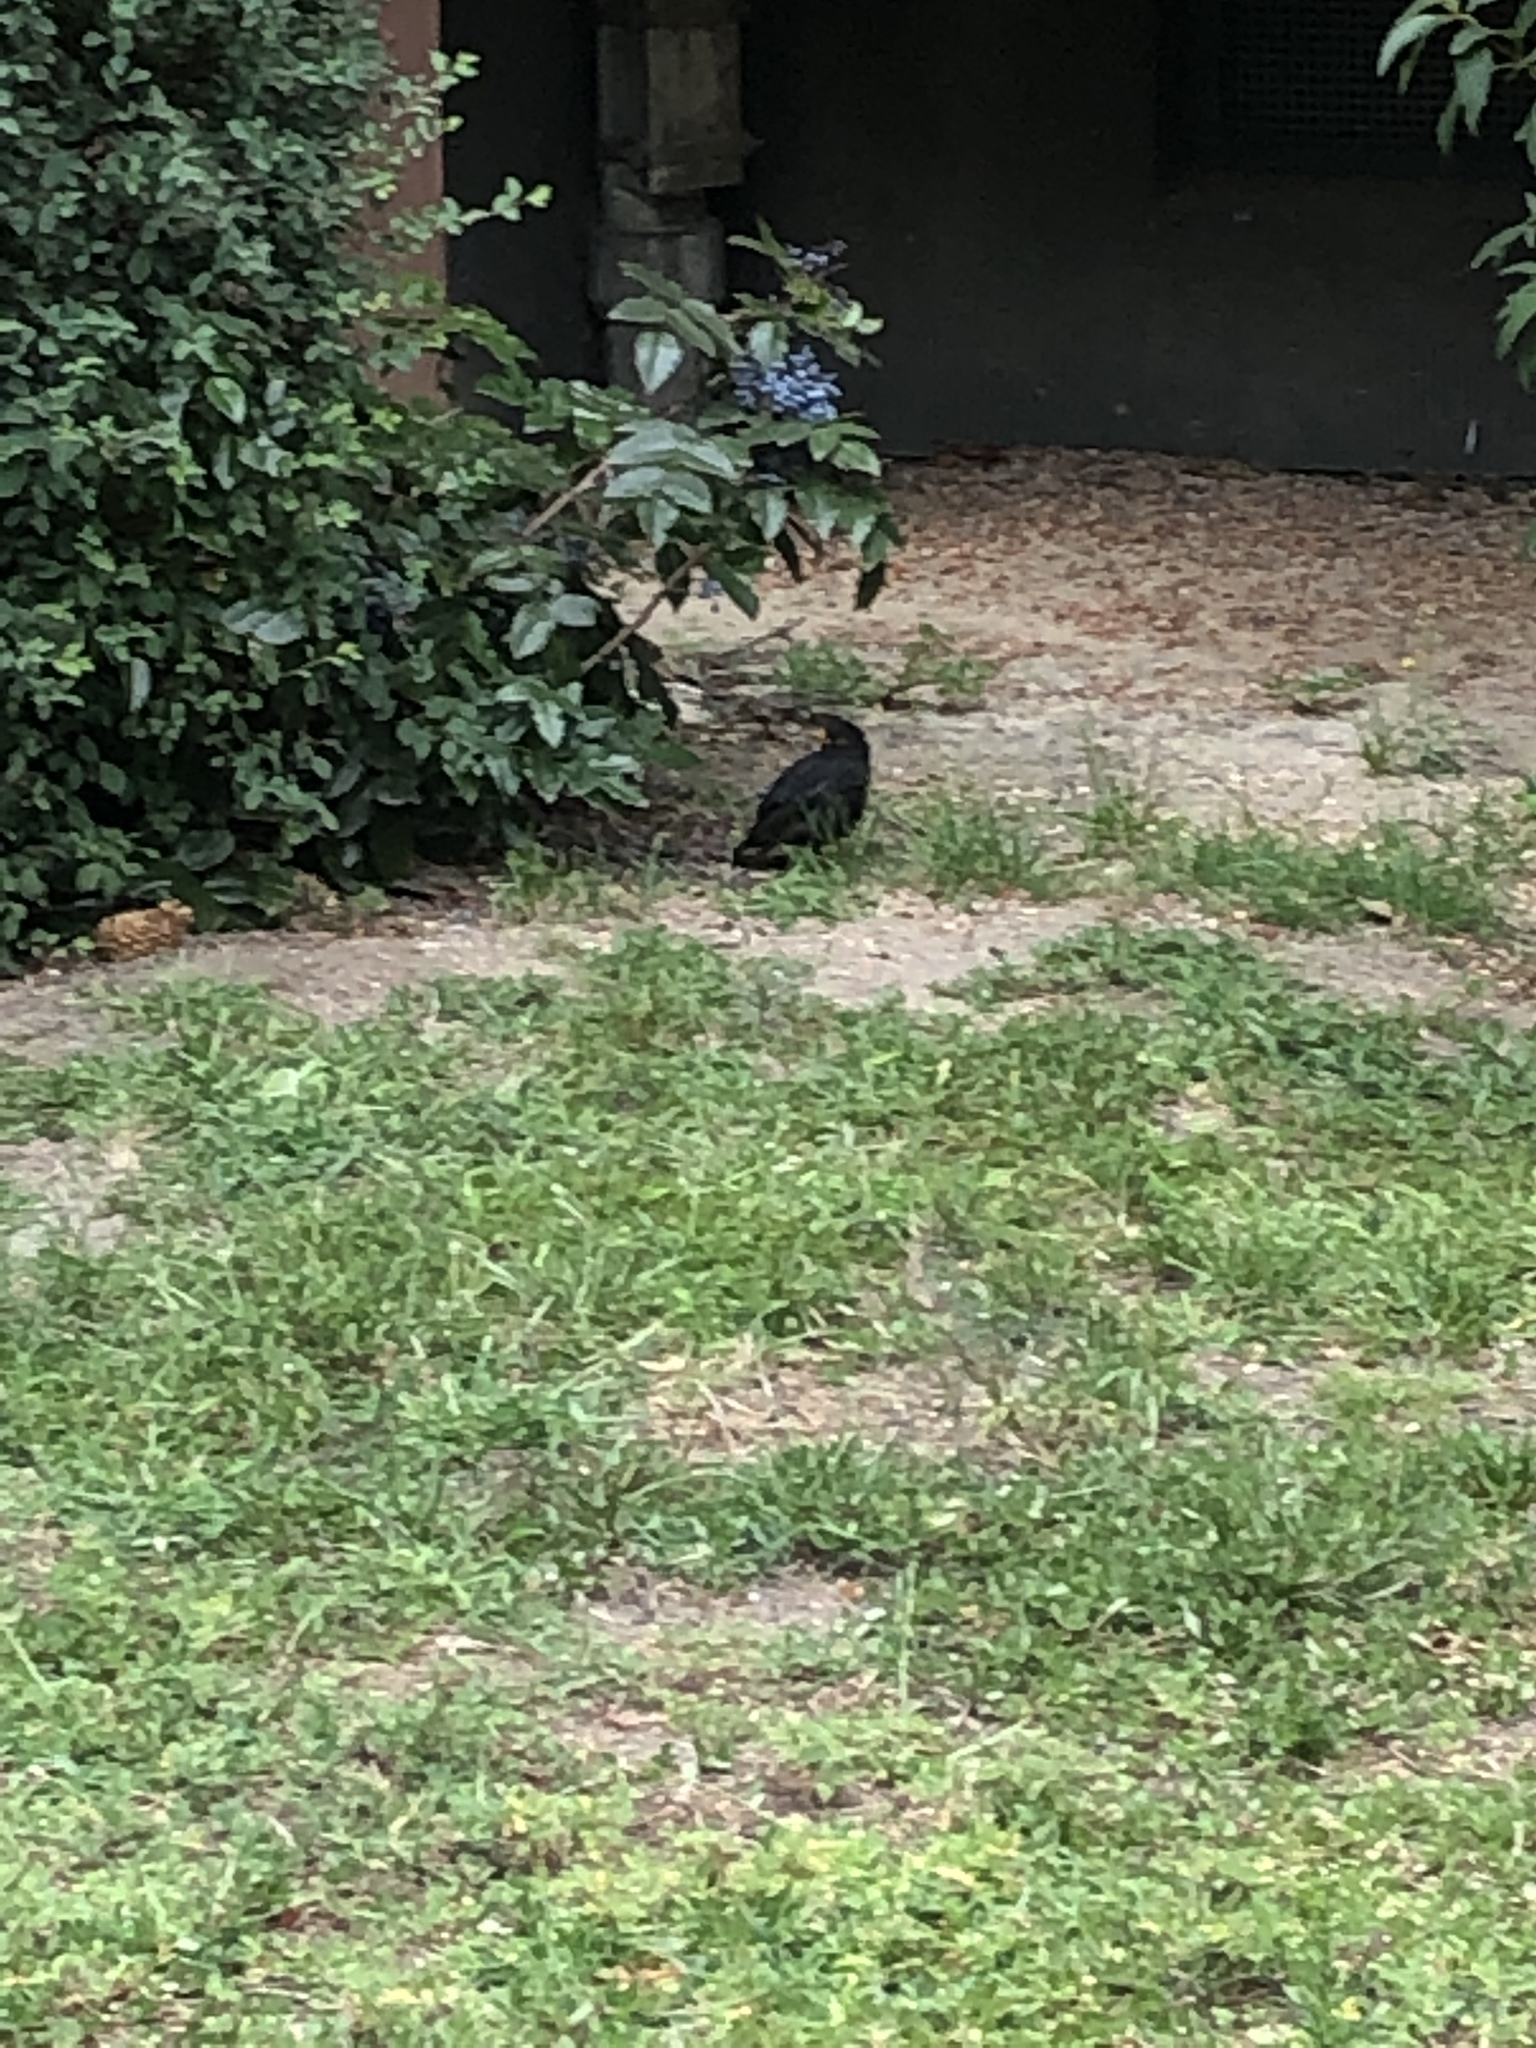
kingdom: Animalia
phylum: Chordata
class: Aves
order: Passeriformes
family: Turdidae
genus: Turdus
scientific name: Turdus merula
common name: Common blackbird
